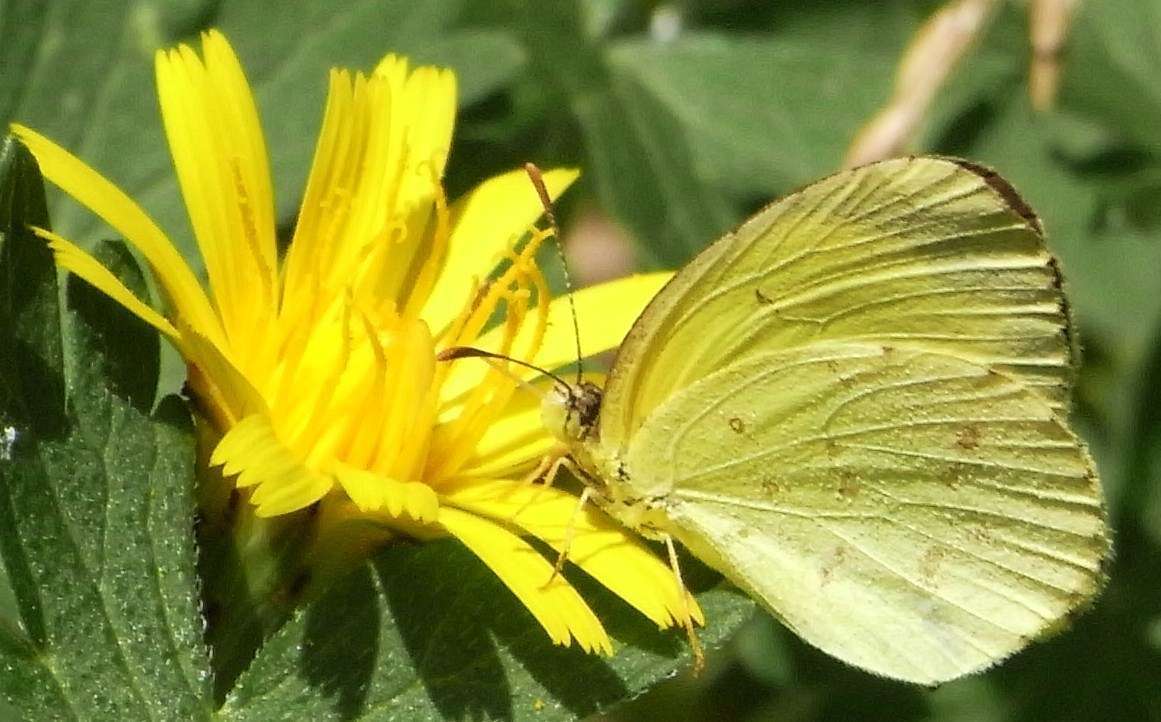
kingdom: Animalia
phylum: Arthropoda
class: Insecta
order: Lepidoptera
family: Pieridae
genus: Eurema
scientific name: Eurema smilax
